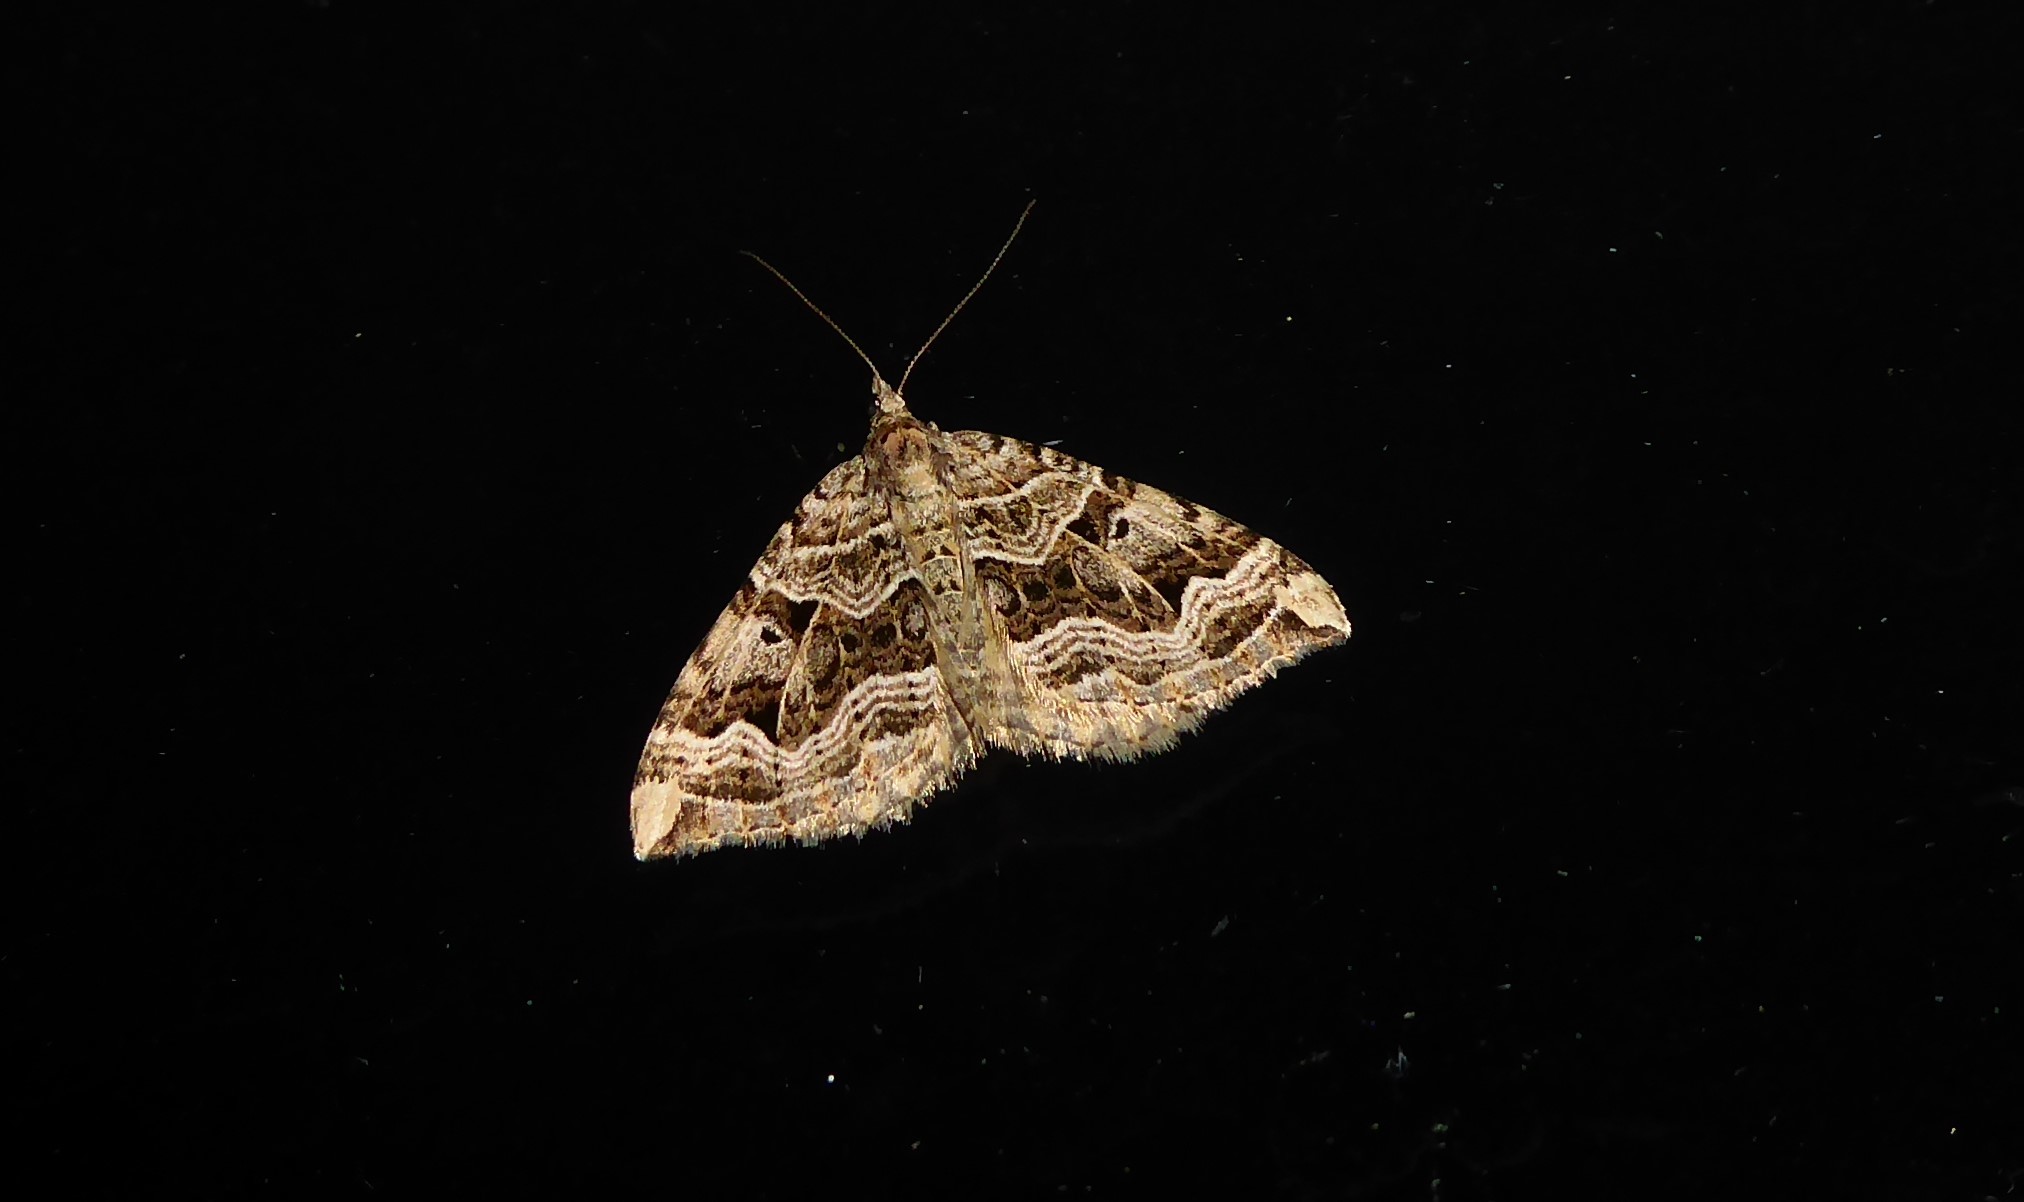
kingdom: Animalia
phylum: Arthropoda
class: Insecta
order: Lepidoptera
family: Geometridae
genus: Xanthorhoe
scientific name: Xanthorhoe semifissata
